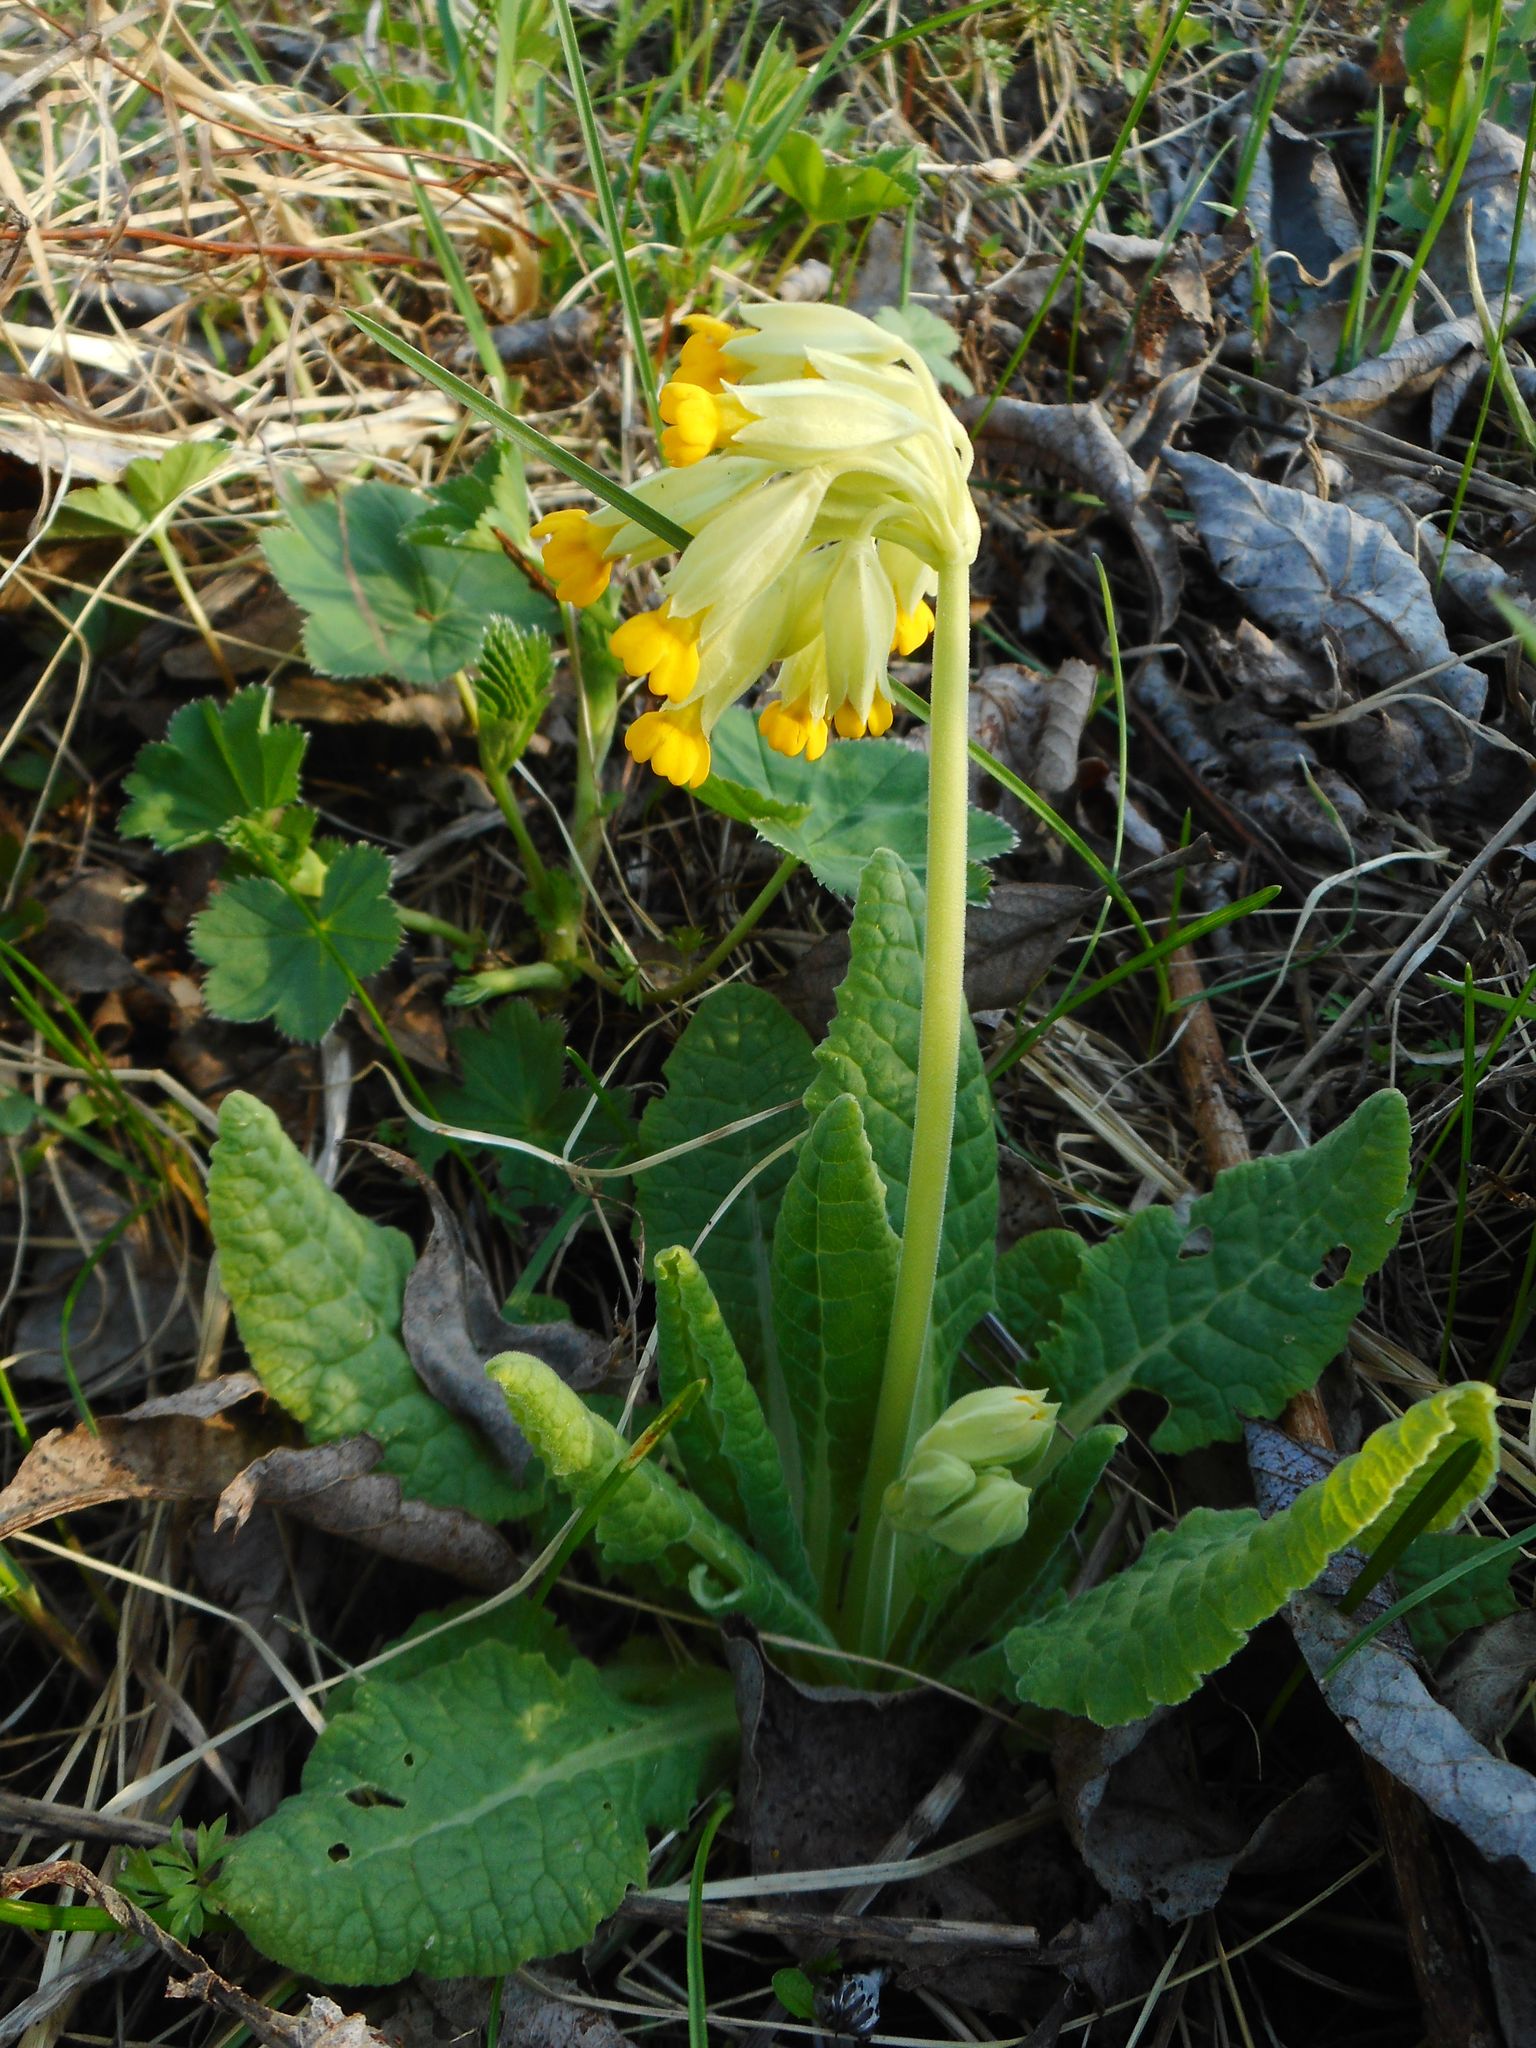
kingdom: Plantae
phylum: Tracheophyta
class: Magnoliopsida
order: Ericales
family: Primulaceae
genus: Primula
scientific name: Primula veris
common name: Cowslip
